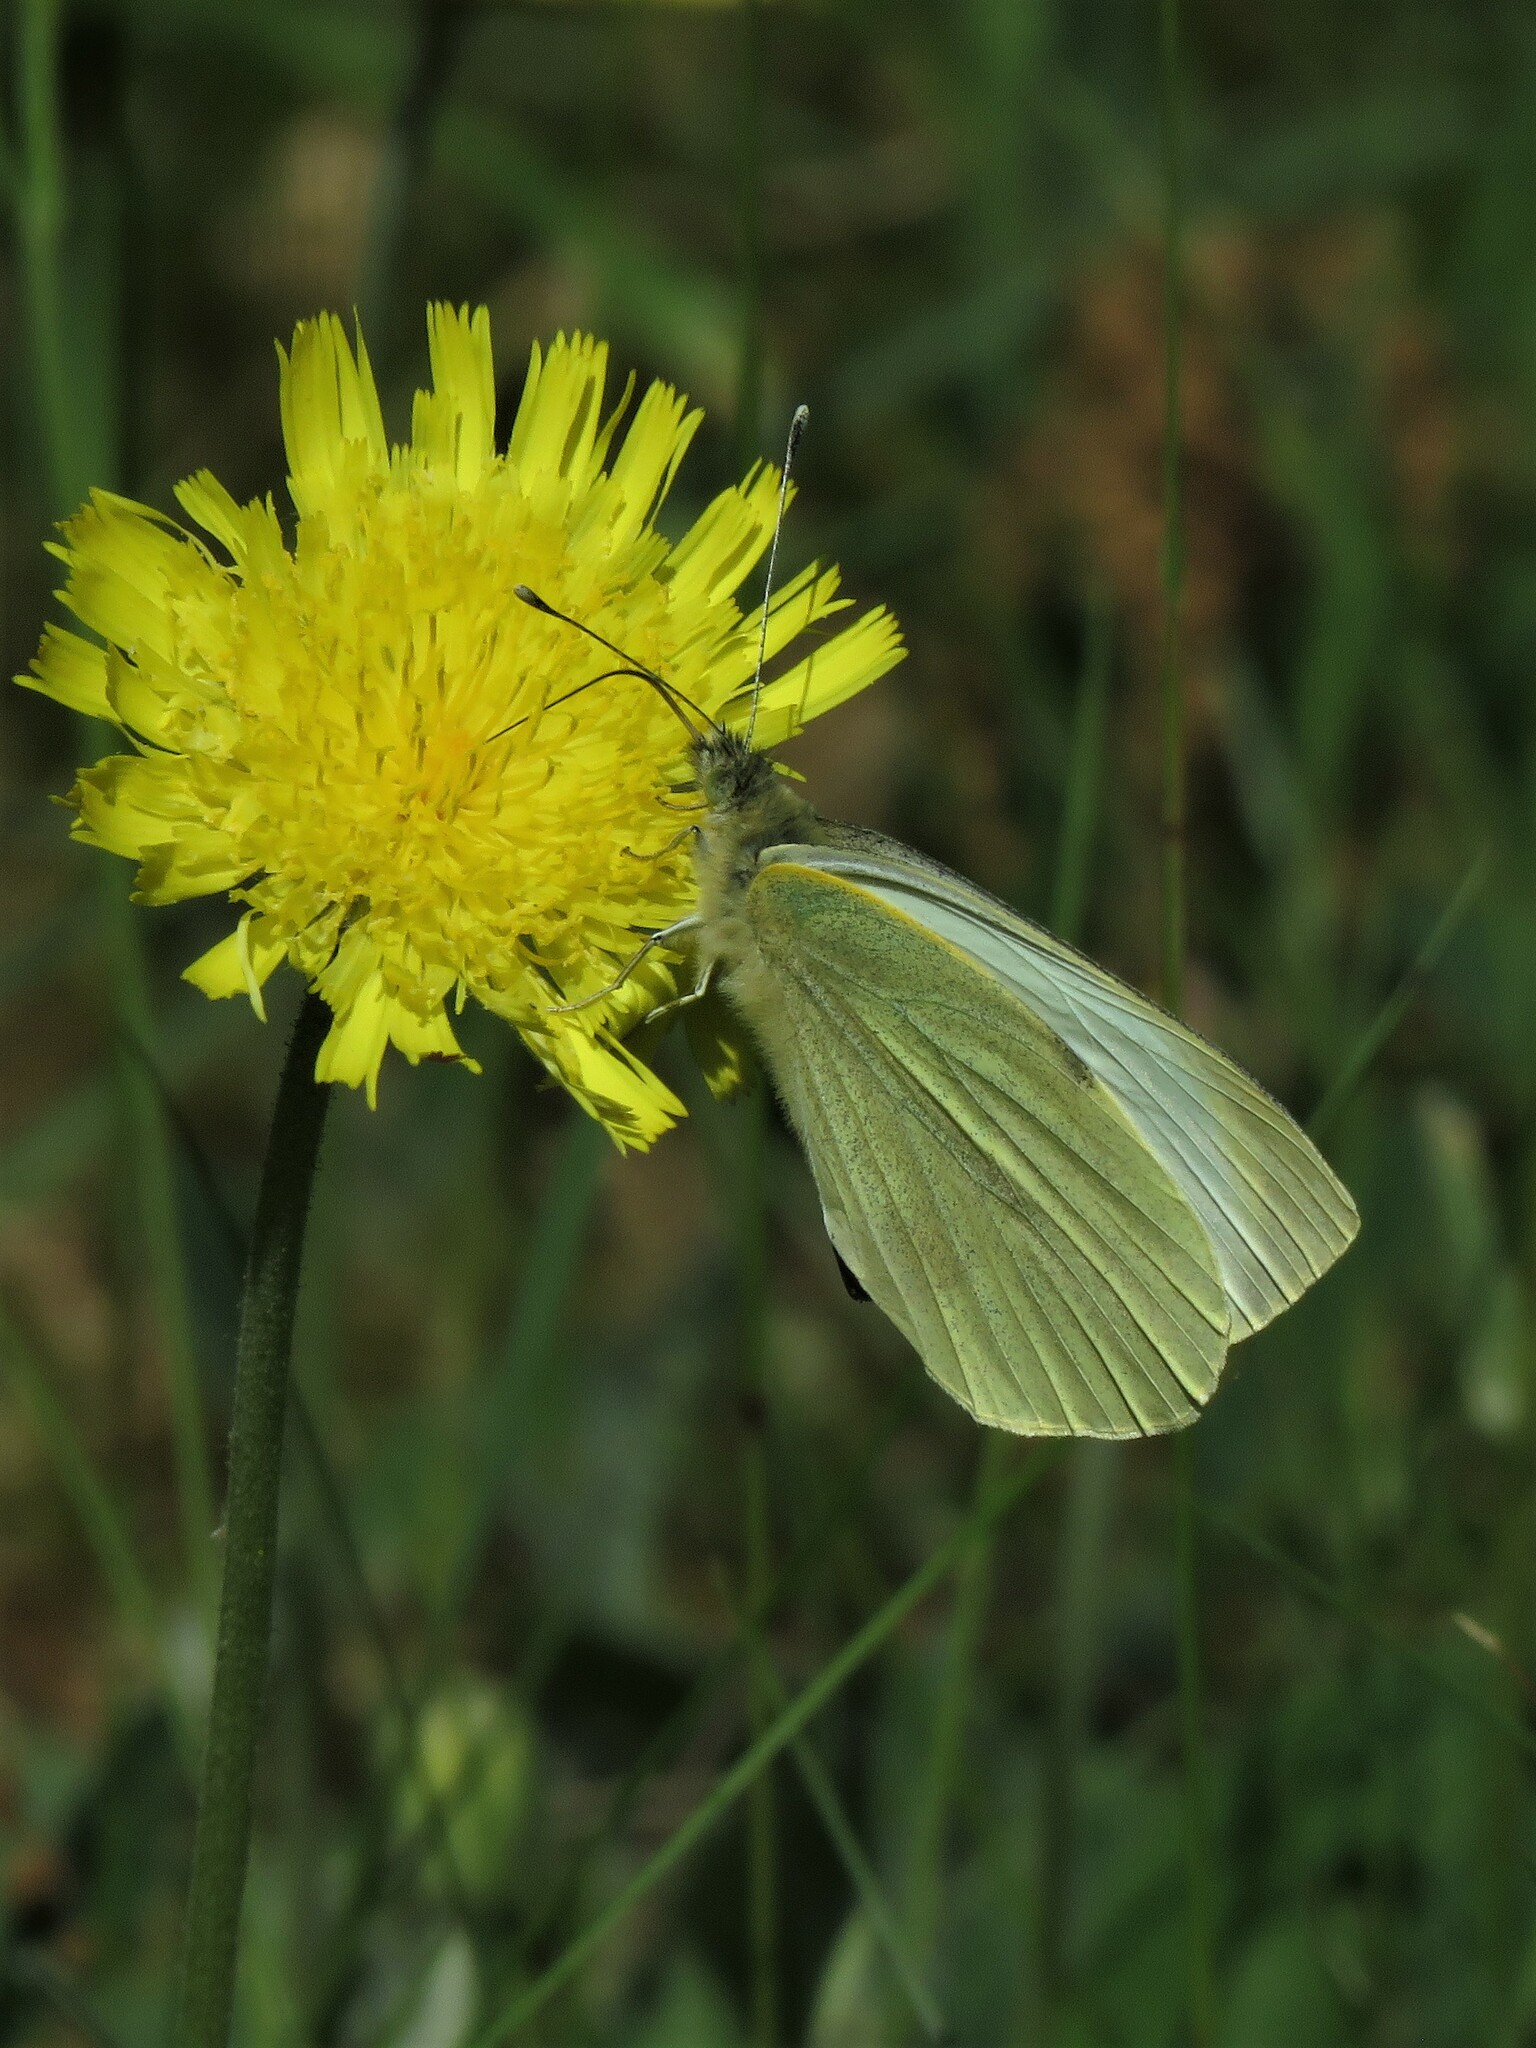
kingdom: Animalia
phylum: Arthropoda
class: Insecta
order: Lepidoptera
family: Pieridae
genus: Pieris
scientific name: Pieris brassicae
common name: Large white
